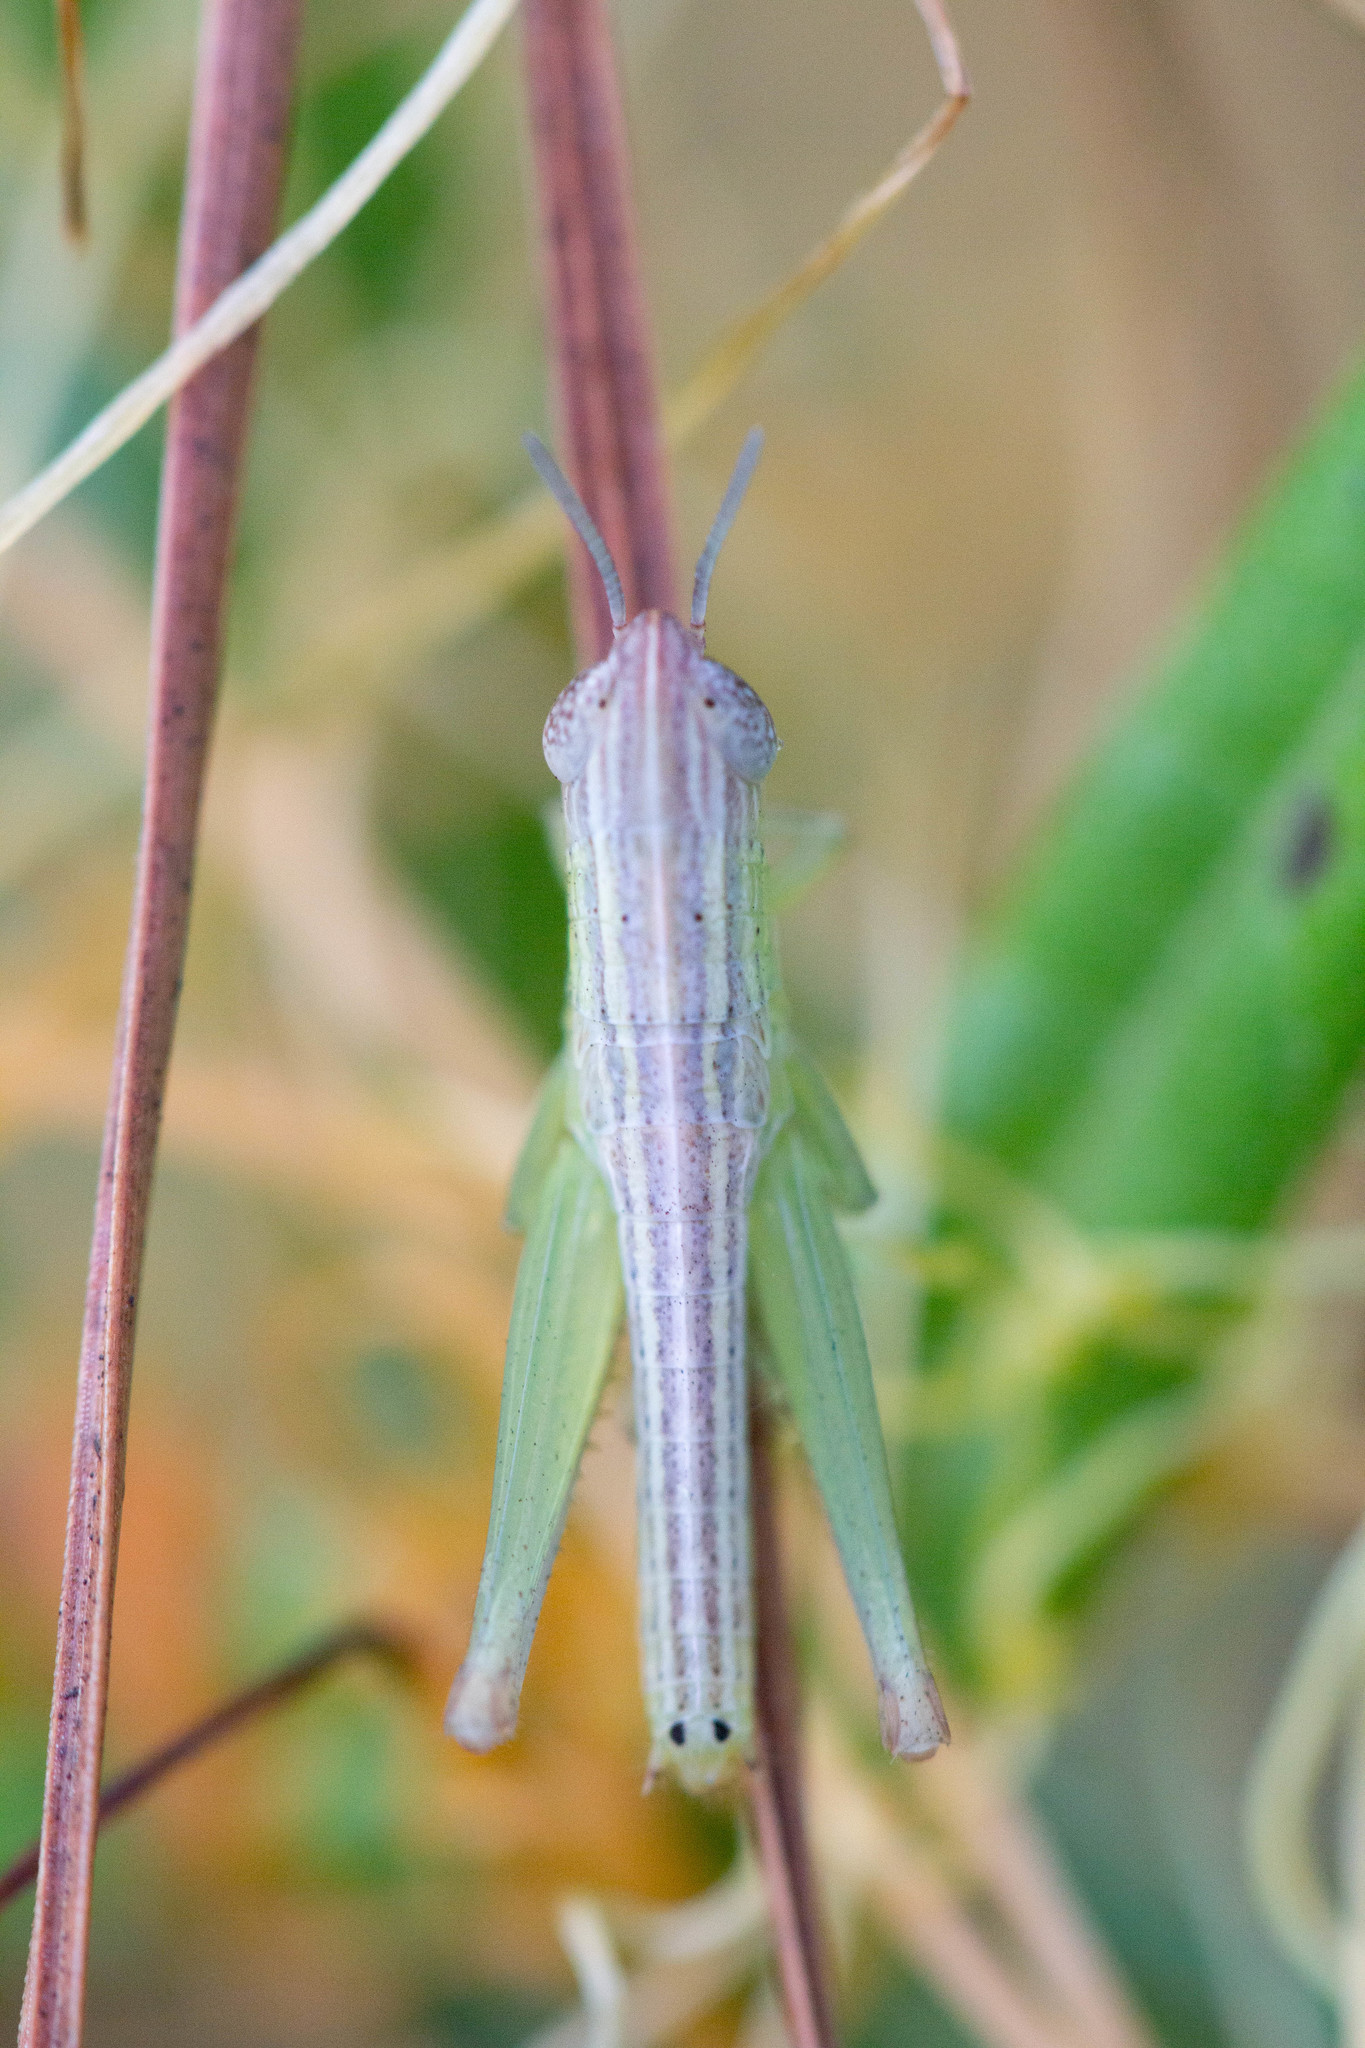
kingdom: Animalia
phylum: Arthropoda
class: Insecta
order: Orthoptera
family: Acrididae
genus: Amblytropidia
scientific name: Amblytropidia mysteca
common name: Brown winter grasshopper
